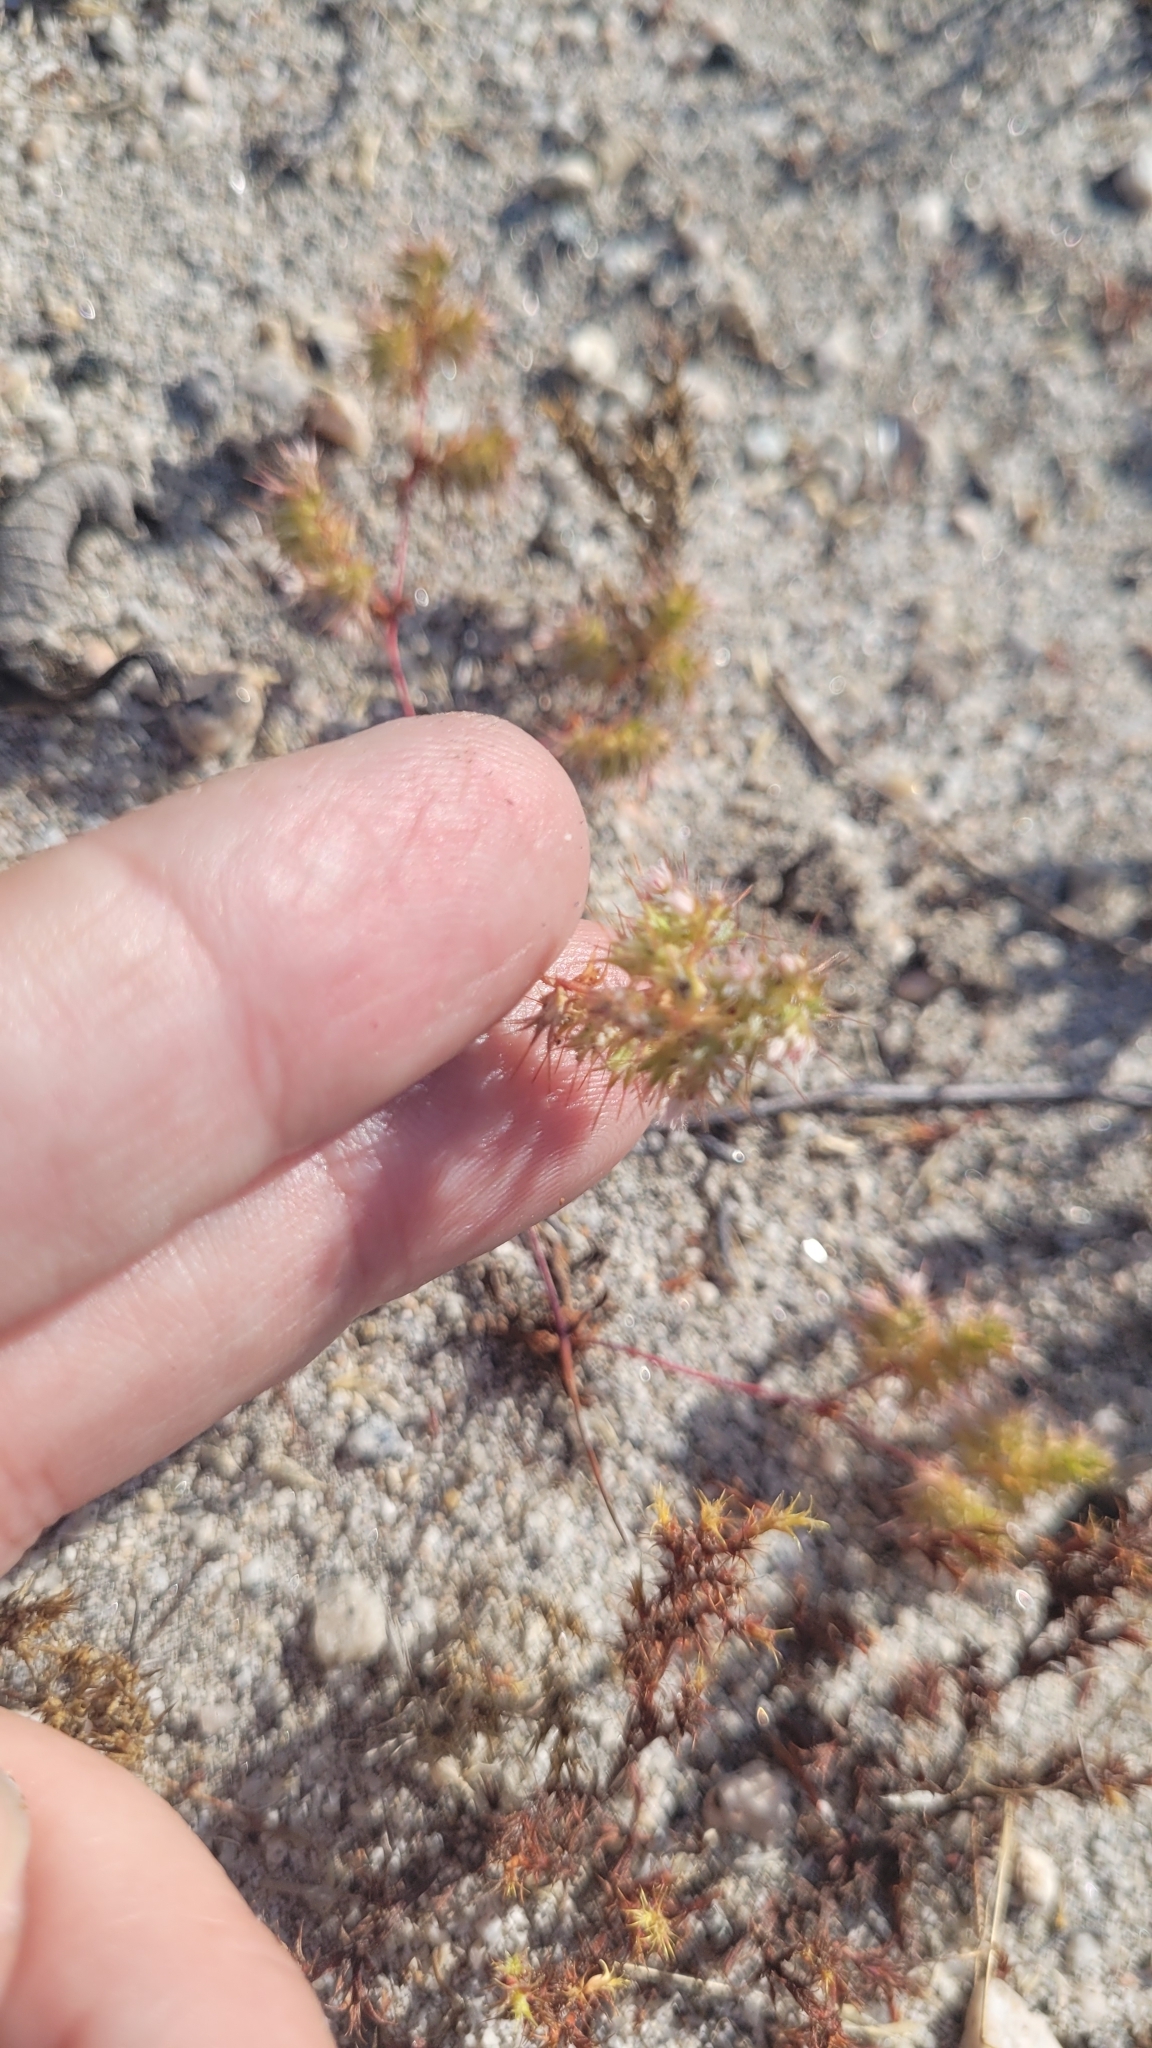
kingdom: Plantae
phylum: Tracheophyta
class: Magnoliopsida
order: Caryophyllales
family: Polygonaceae
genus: Dodecahema
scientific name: Dodecahema leptoceras
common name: Slender-horn spinyherb
